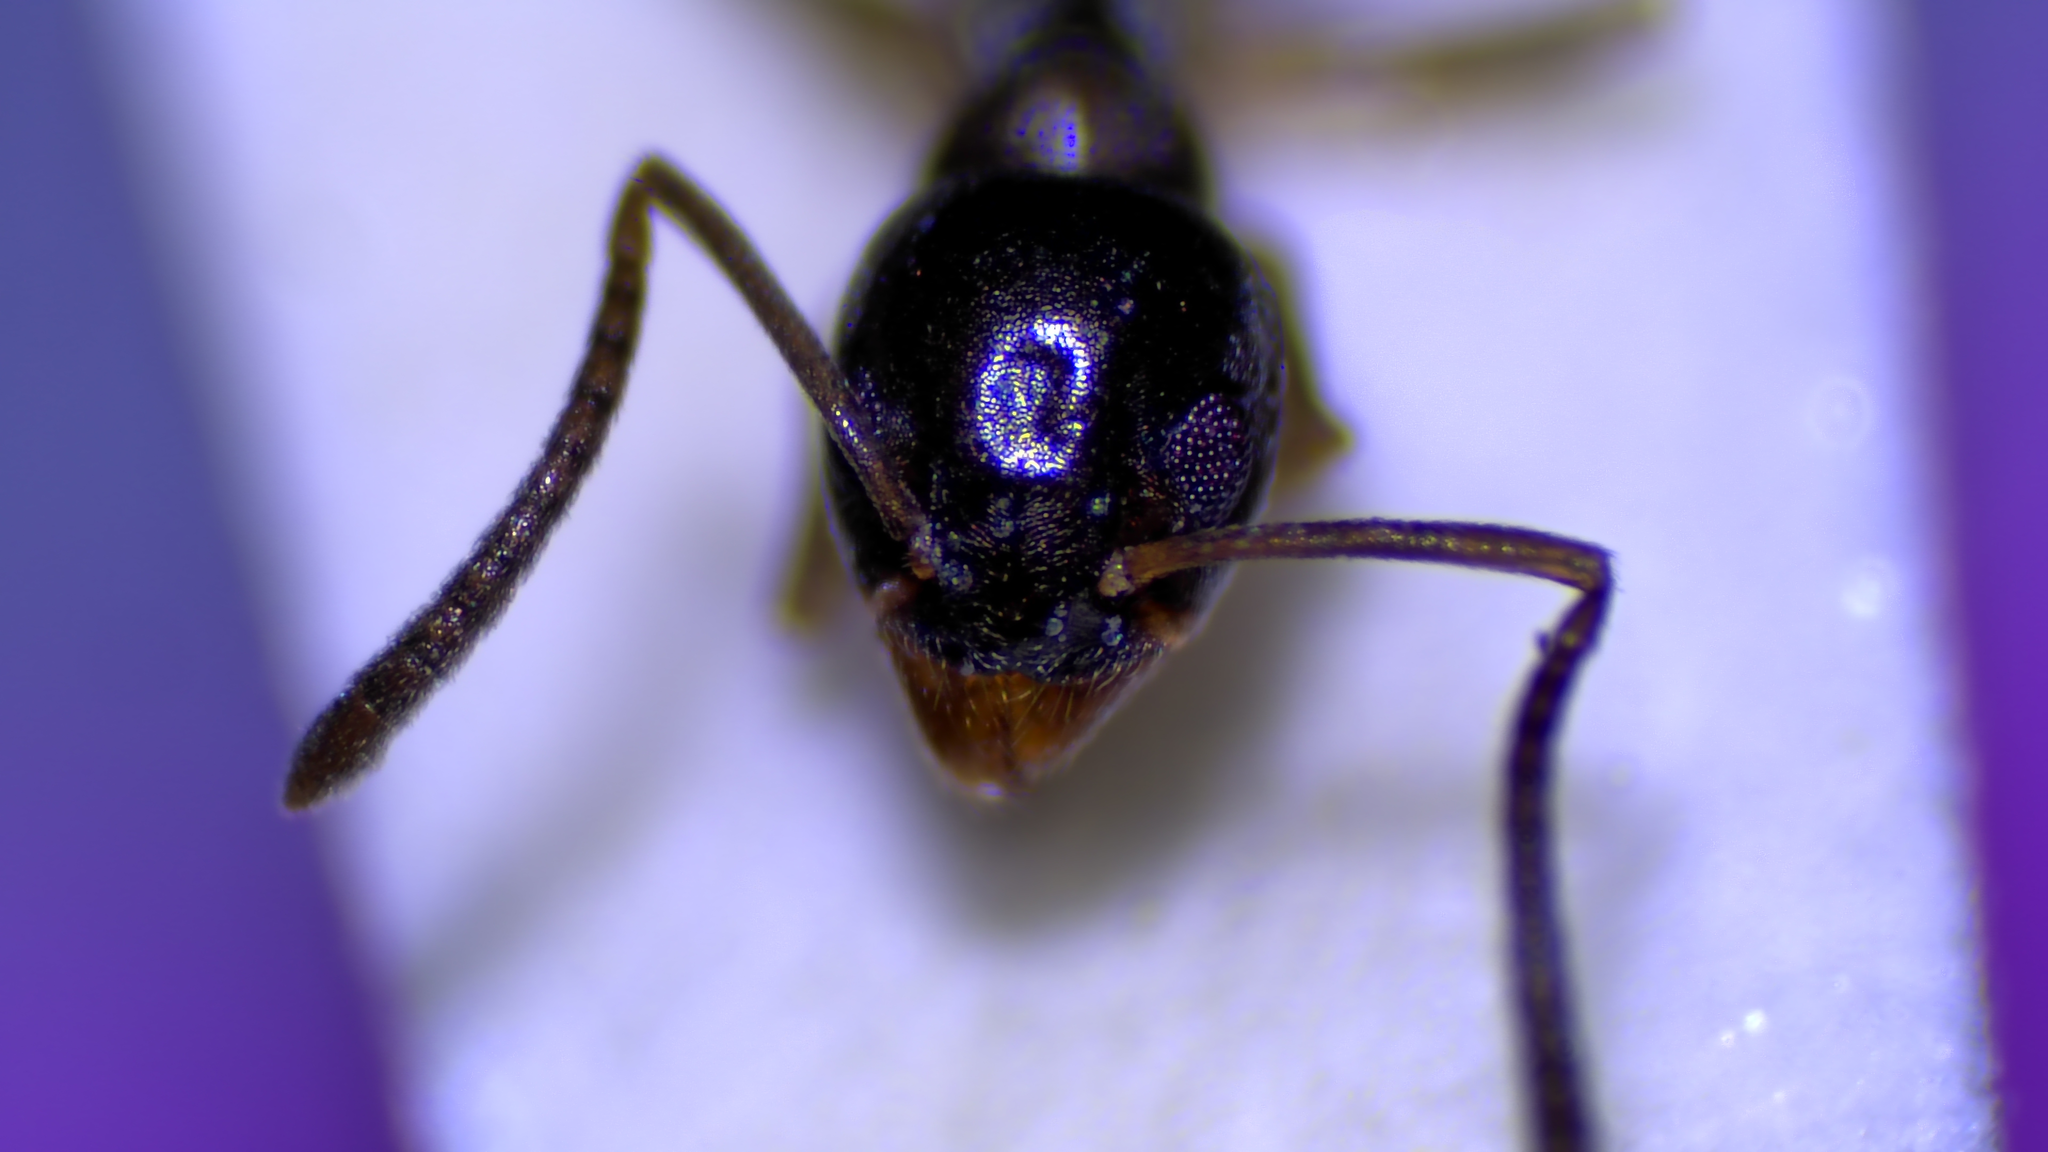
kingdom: Animalia
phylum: Arthropoda
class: Insecta
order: Hymenoptera
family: Formicidae
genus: Tapinoma
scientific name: Tapinoma sessile
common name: Odorous house ant
